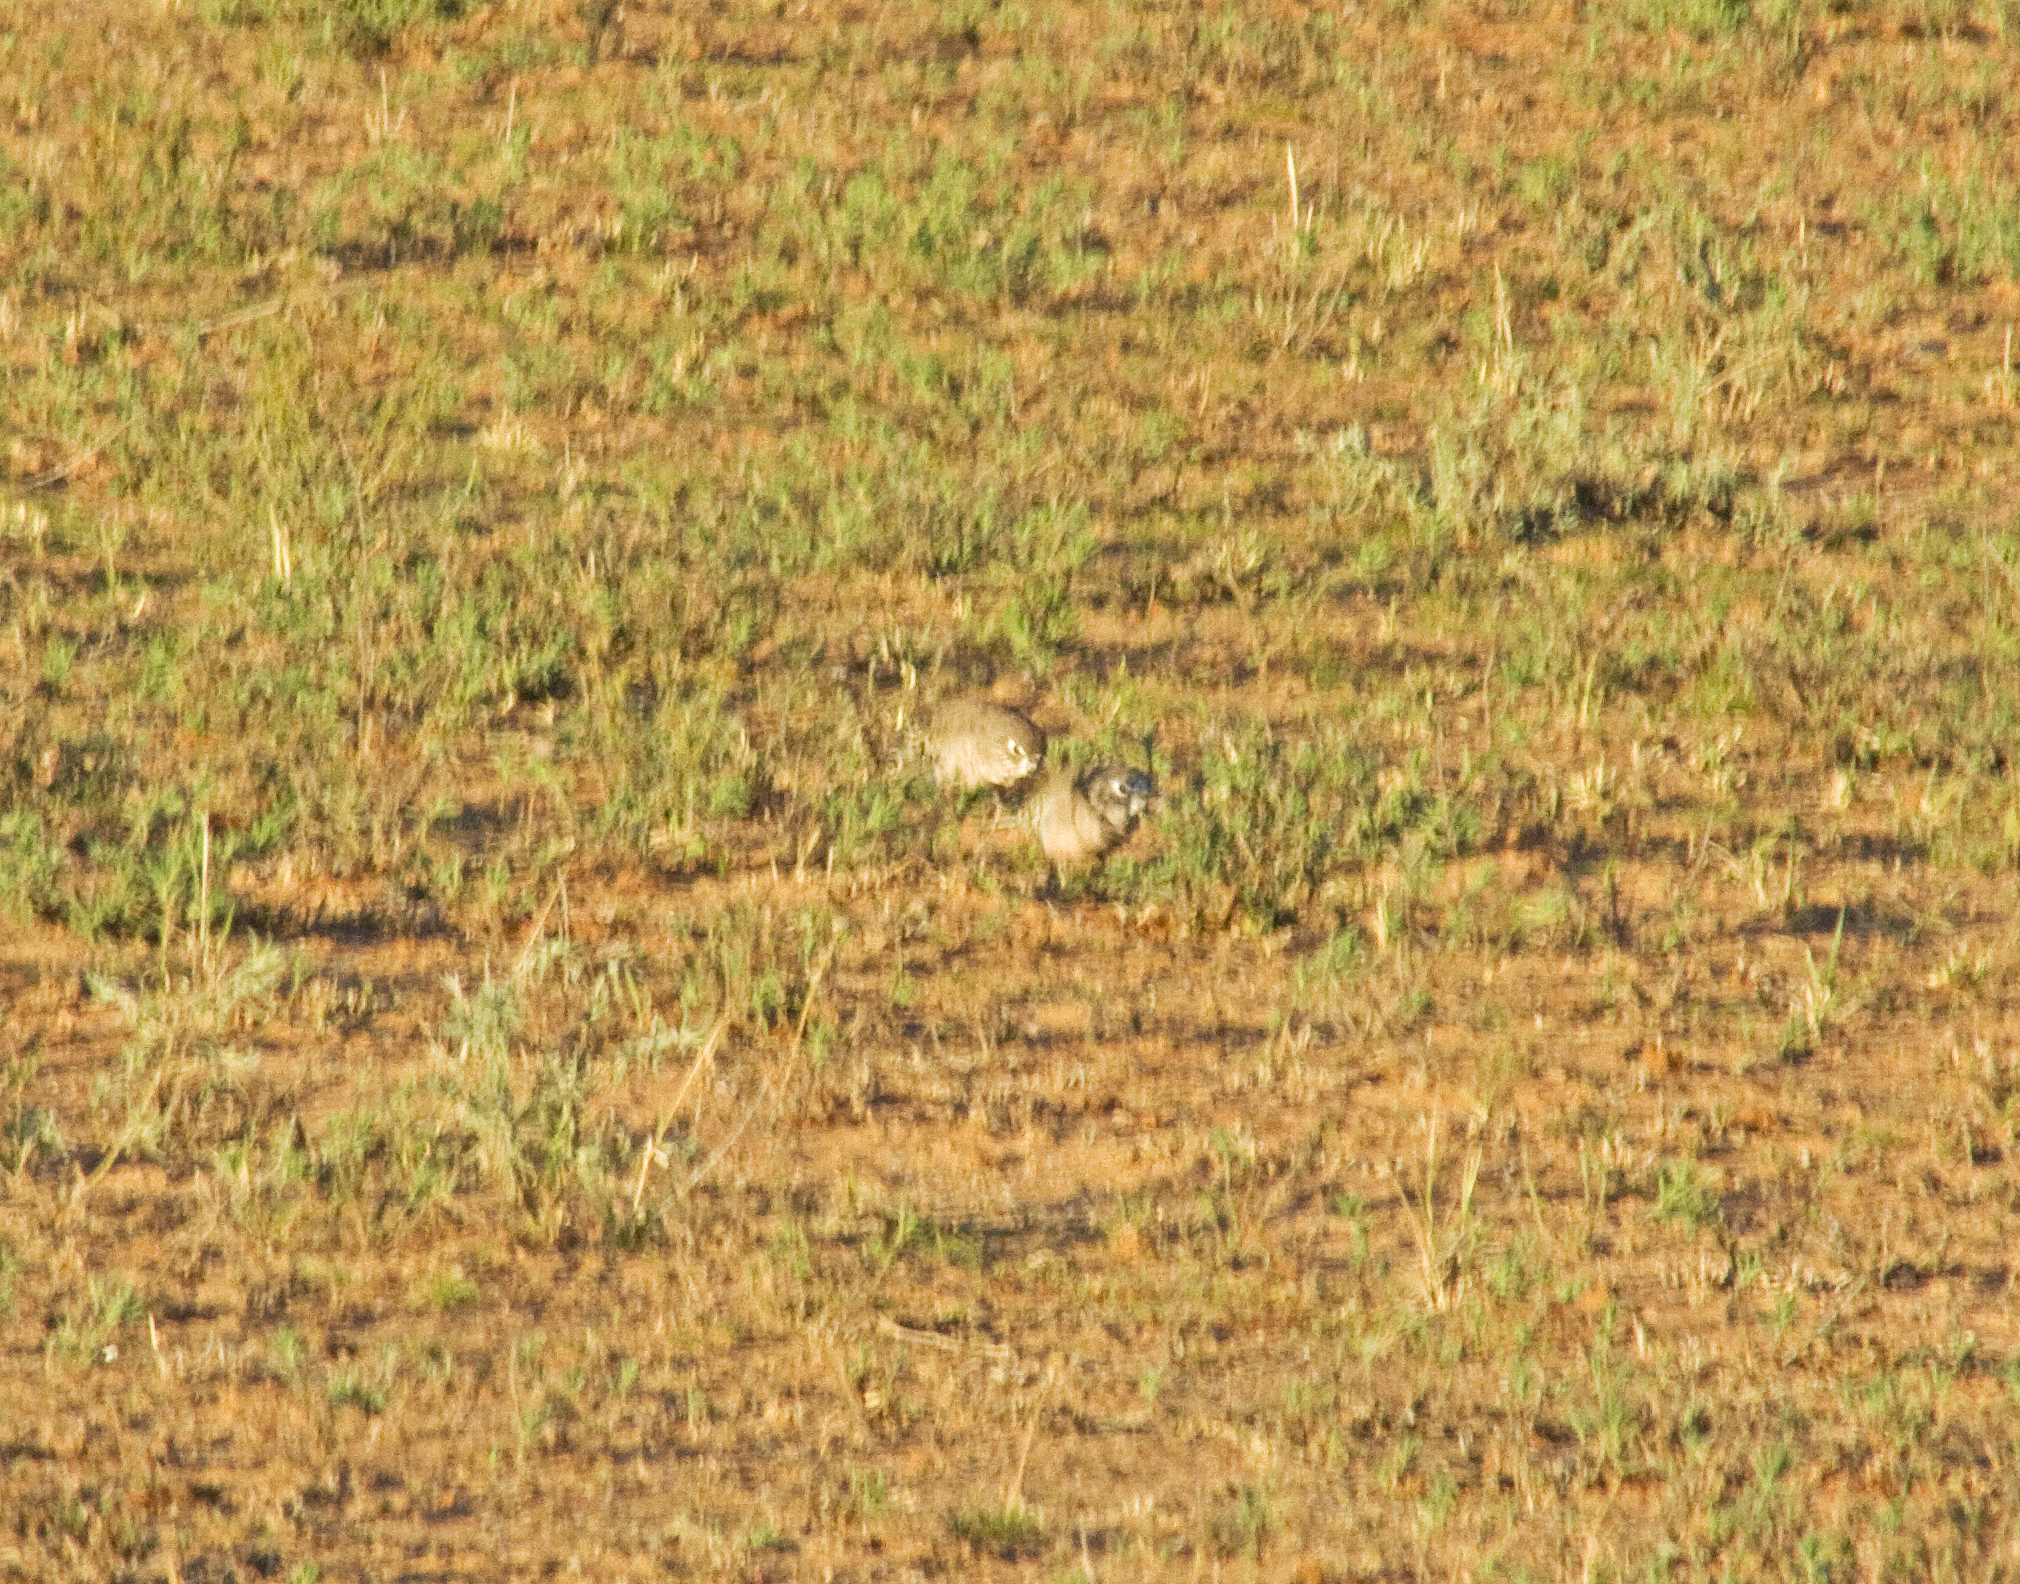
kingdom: Animalia
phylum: Chordata
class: Aves
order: Psittaciformes
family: Psittacidae
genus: Neopsephotus
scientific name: Neopsephotus bourkii
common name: Bourke's parrot
